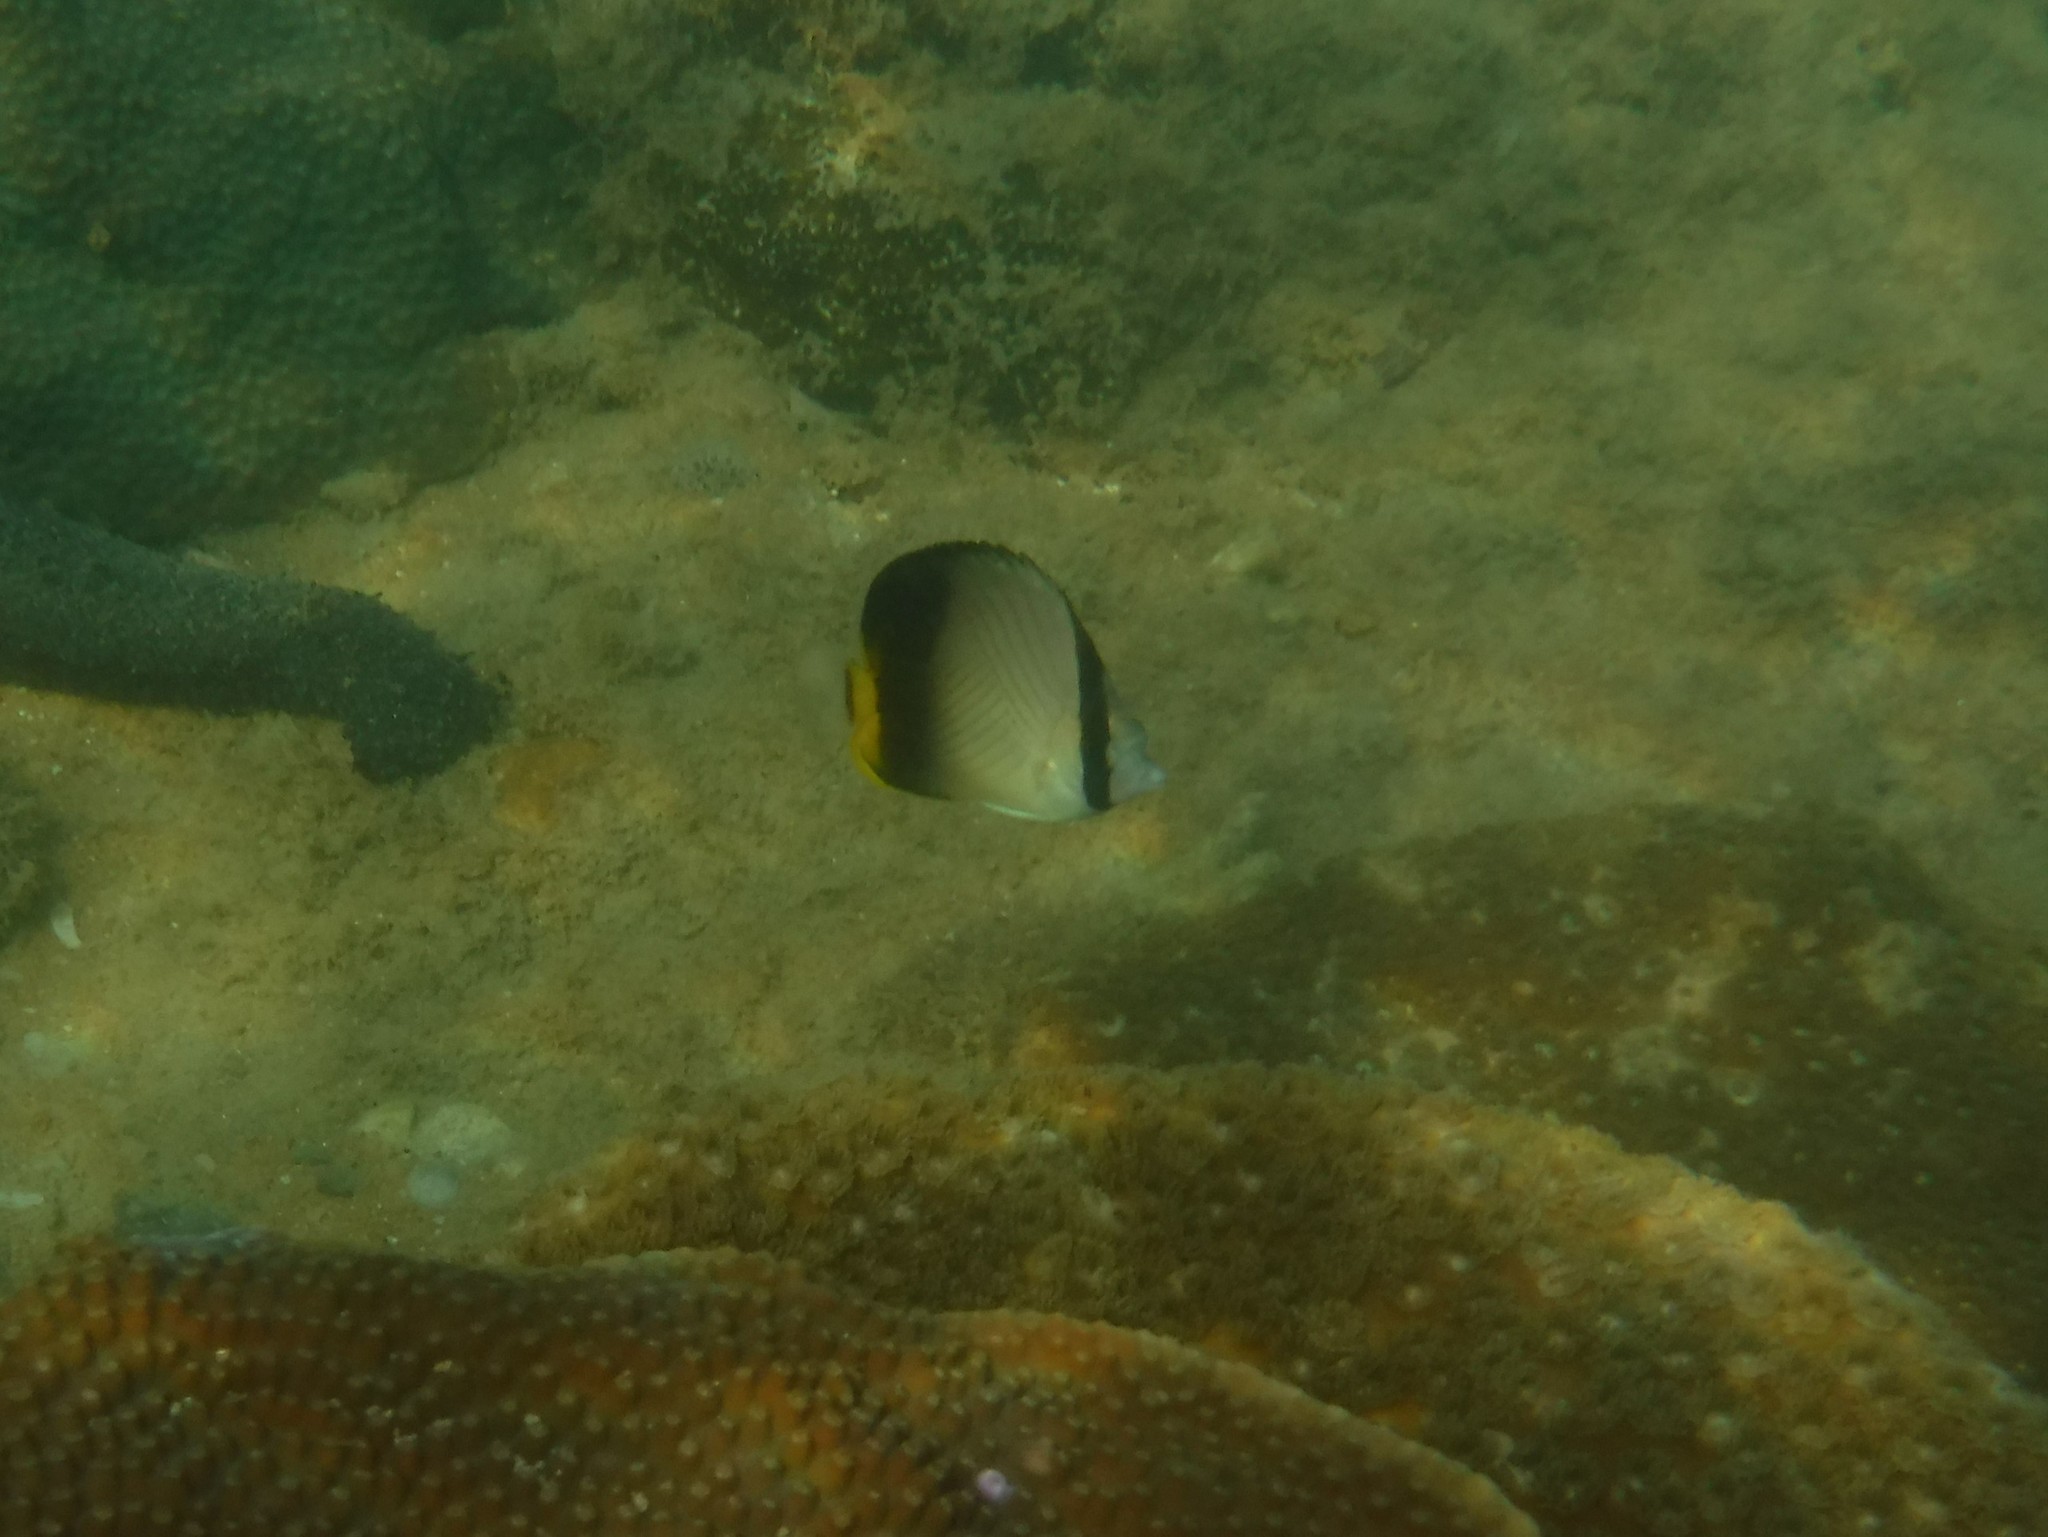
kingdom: Animalia
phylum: Chordata
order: Perciformes
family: Chaetodontidae
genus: Chaetodon
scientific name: Chaetodon decussatus
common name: Indian vagabond butterflyfish
